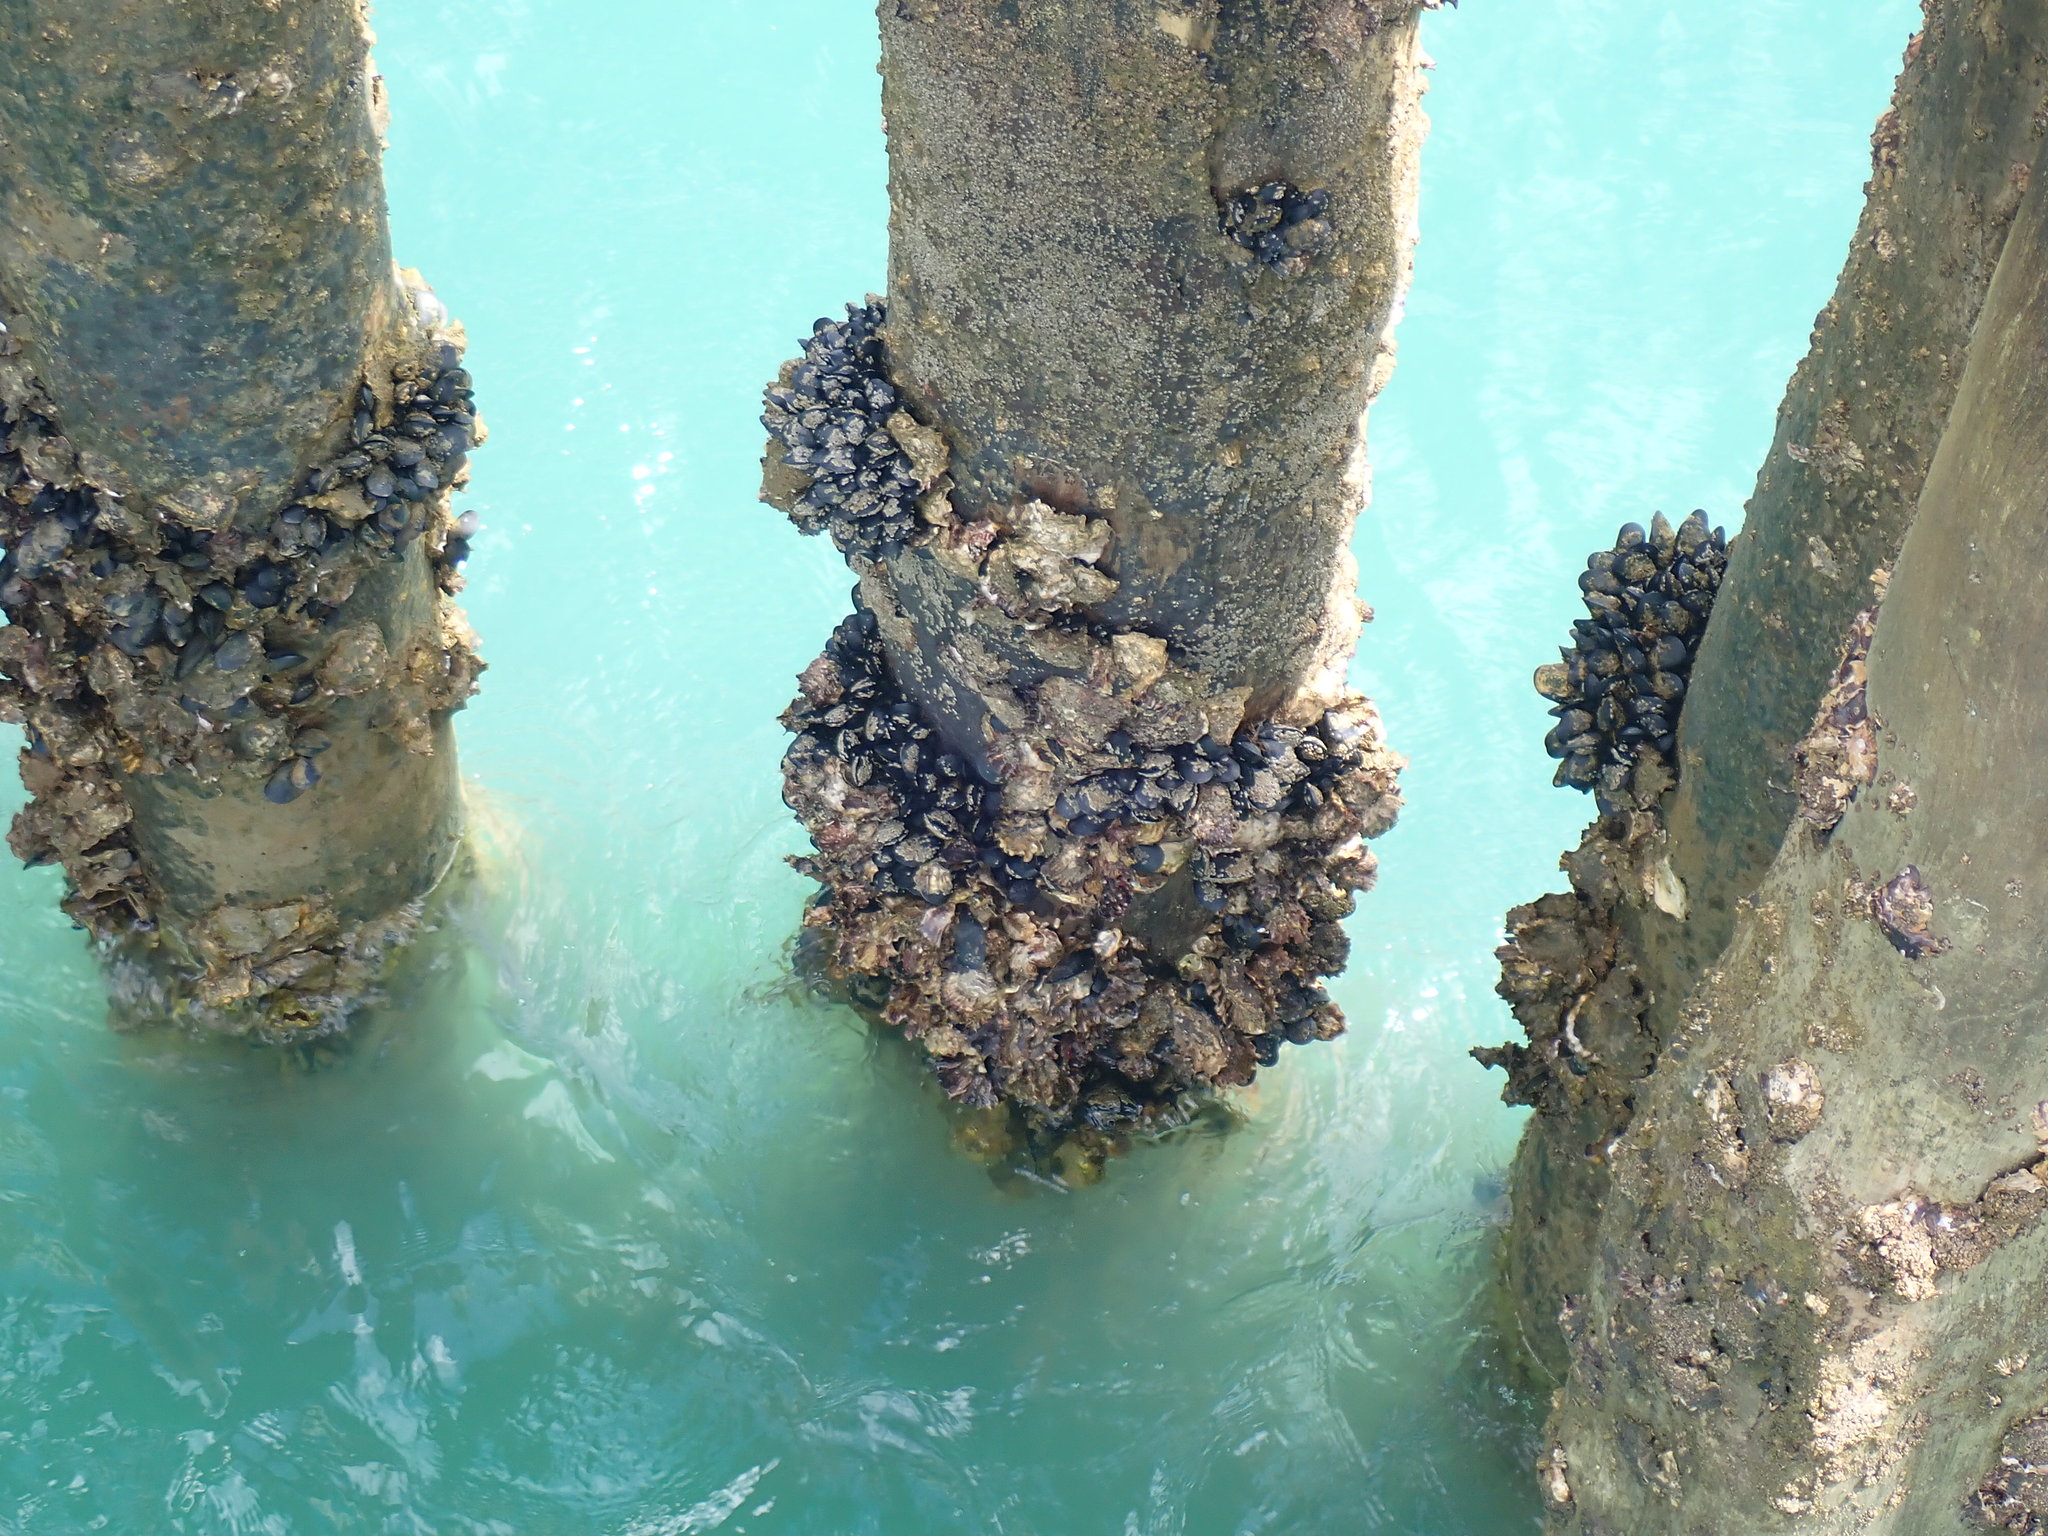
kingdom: Animalia
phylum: Mollusca
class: Bivalvia
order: Mytilida
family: Mytilidae
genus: Mytilus
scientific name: Mytilus planulatus
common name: Australian mussel
